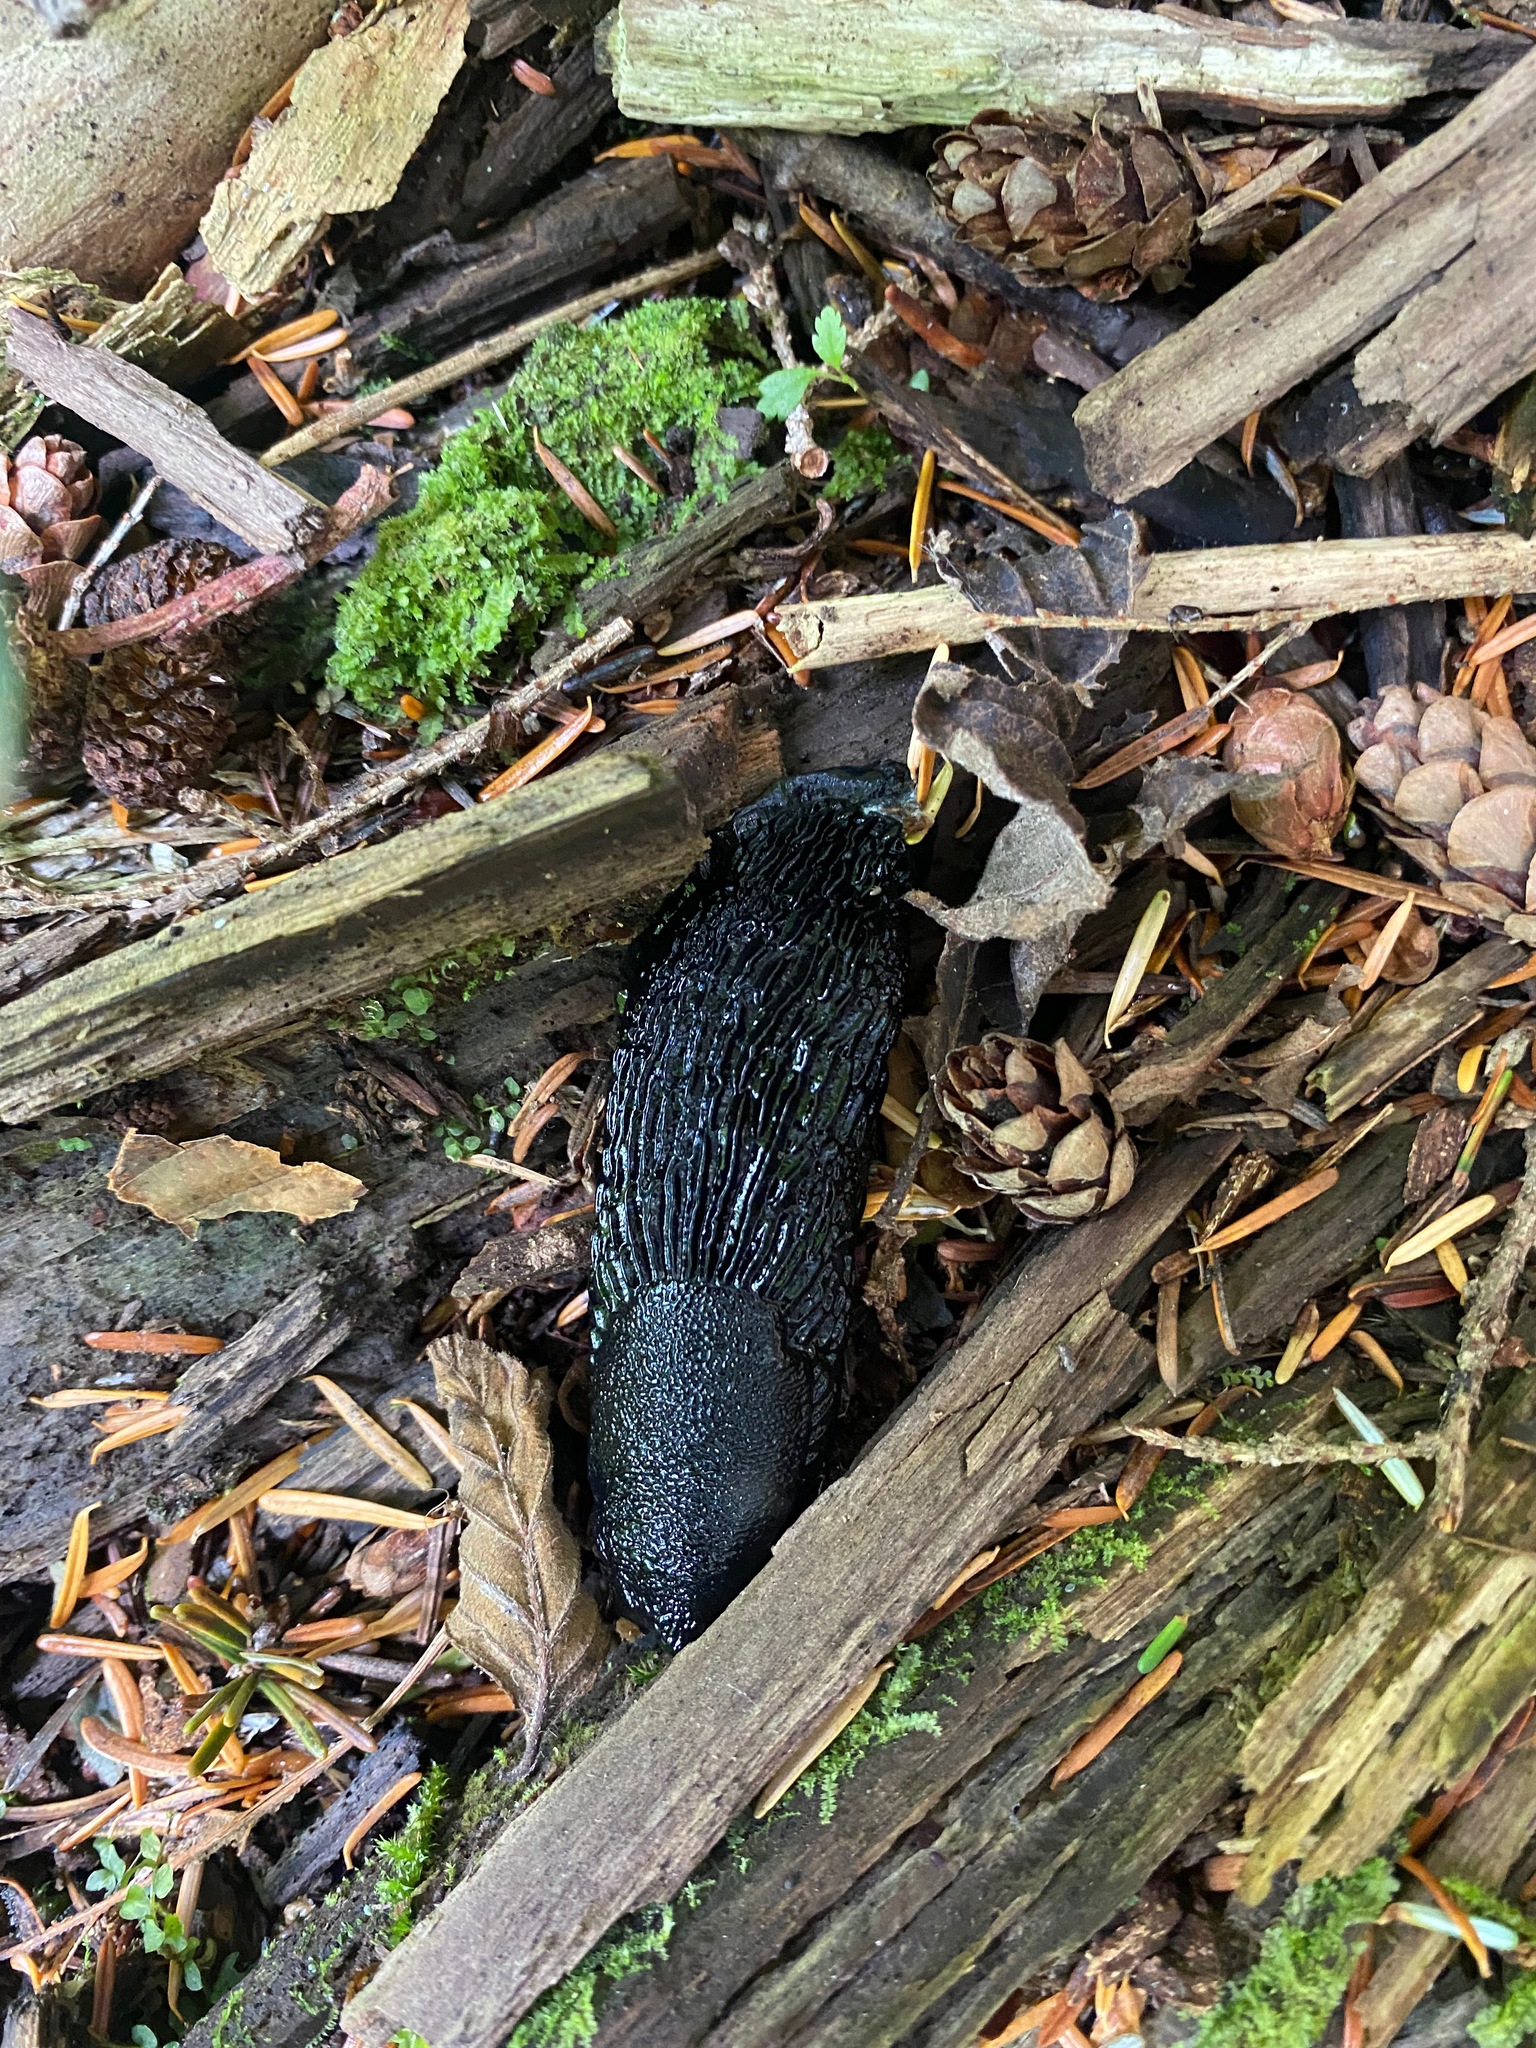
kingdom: Animalia
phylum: Mollusca
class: Gastropoda
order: Stylommatophora
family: Arionidae
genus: Arion
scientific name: Arion
